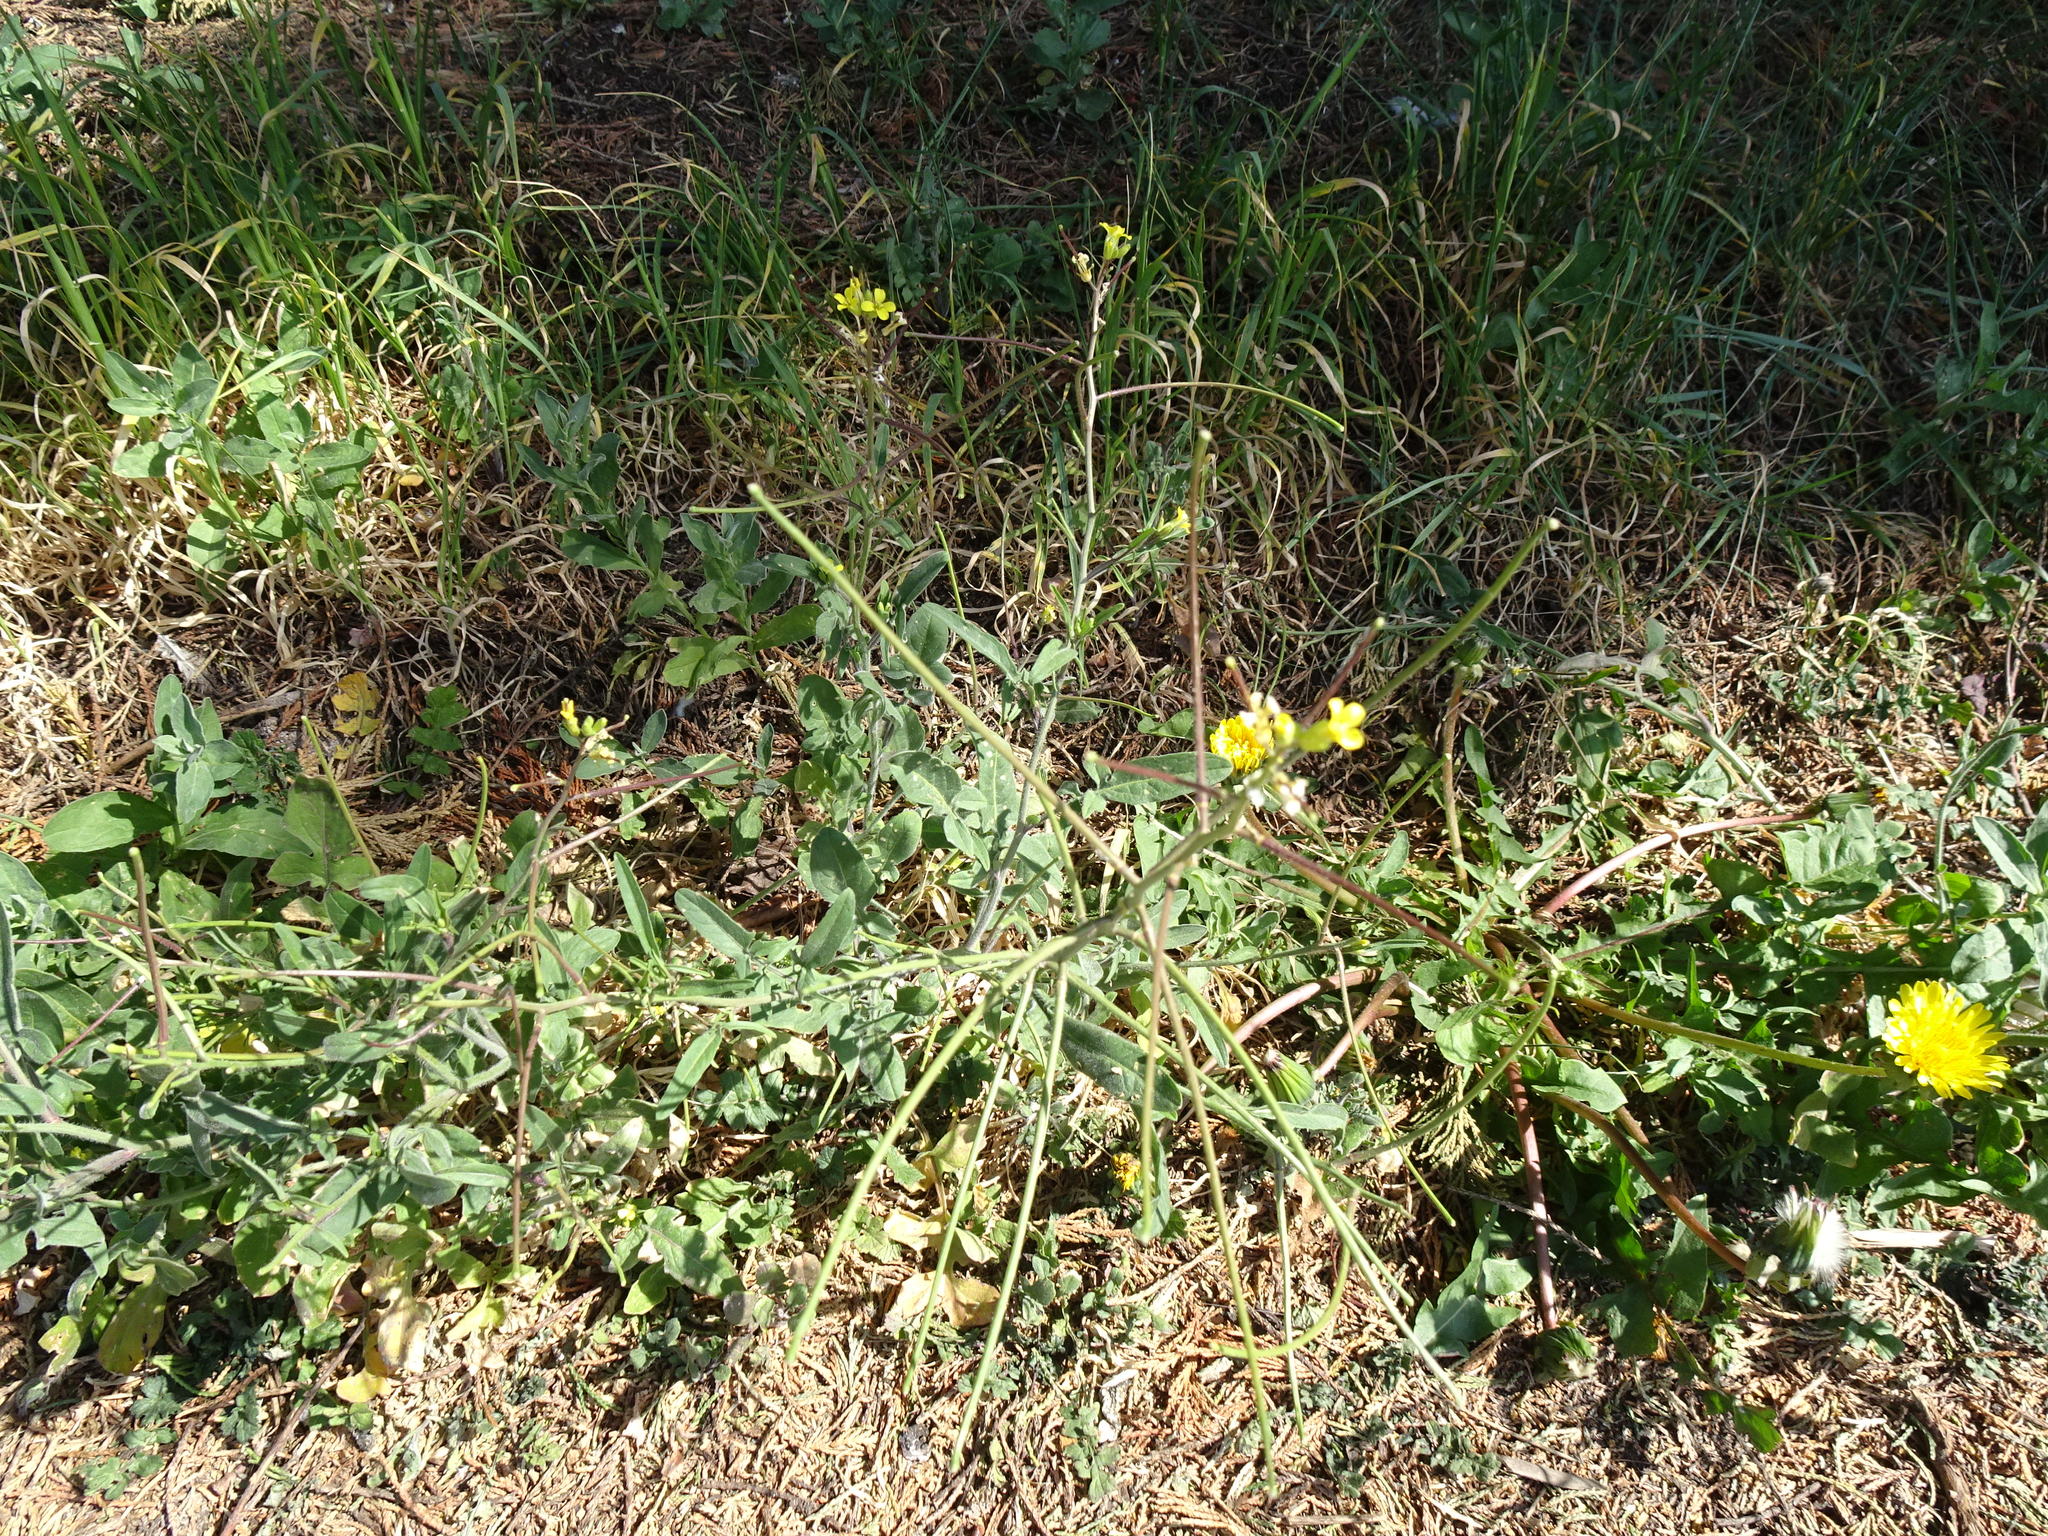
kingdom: Plantae
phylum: Tracheophyta
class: Magnoliopsida
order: Brassicales
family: Brassicaceae
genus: Sisymbrium
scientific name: Sisymbrium orientale
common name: Eastern rocket
